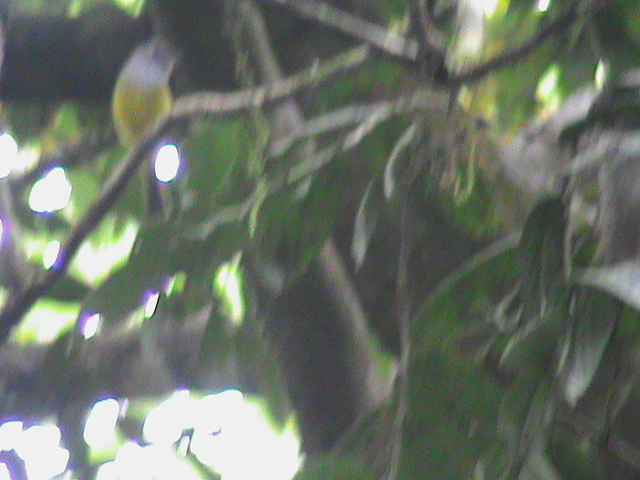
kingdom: Animalia
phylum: Chordata
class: Aves
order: Passeriformes
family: Stenostiridae
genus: Culicicapa
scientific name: Culicicapa ceylonensis
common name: Grey-headed canary-flycatcher
